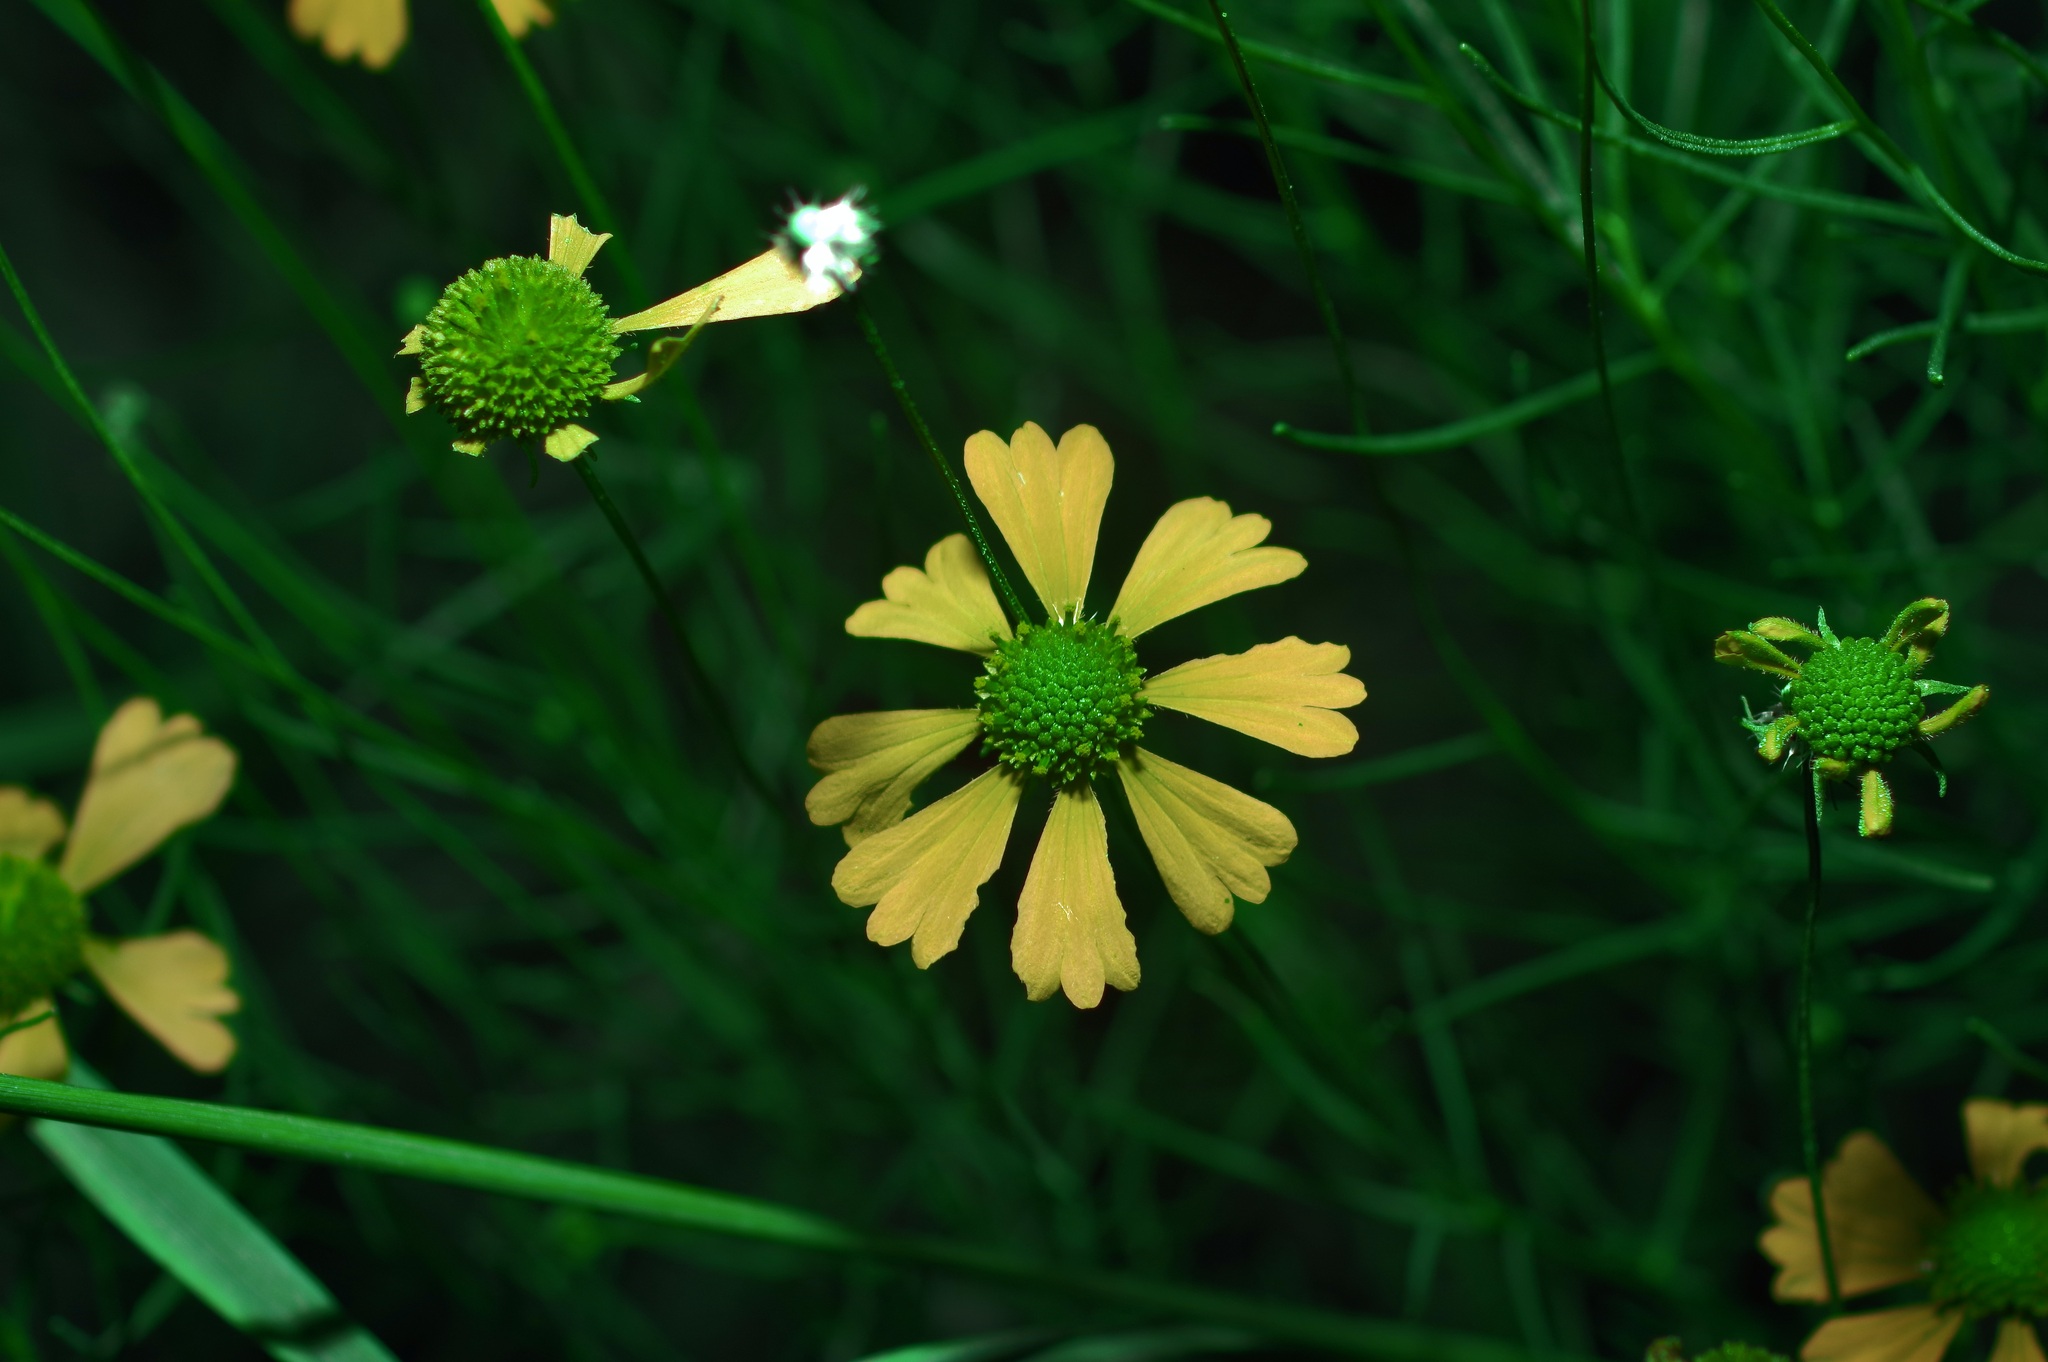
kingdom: Plantae
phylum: Tracheophyta
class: Magnoliopsida
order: Asterales
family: Asteraceae
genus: Helenium
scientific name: Helenium amarum
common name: Bitter sneezeweed
